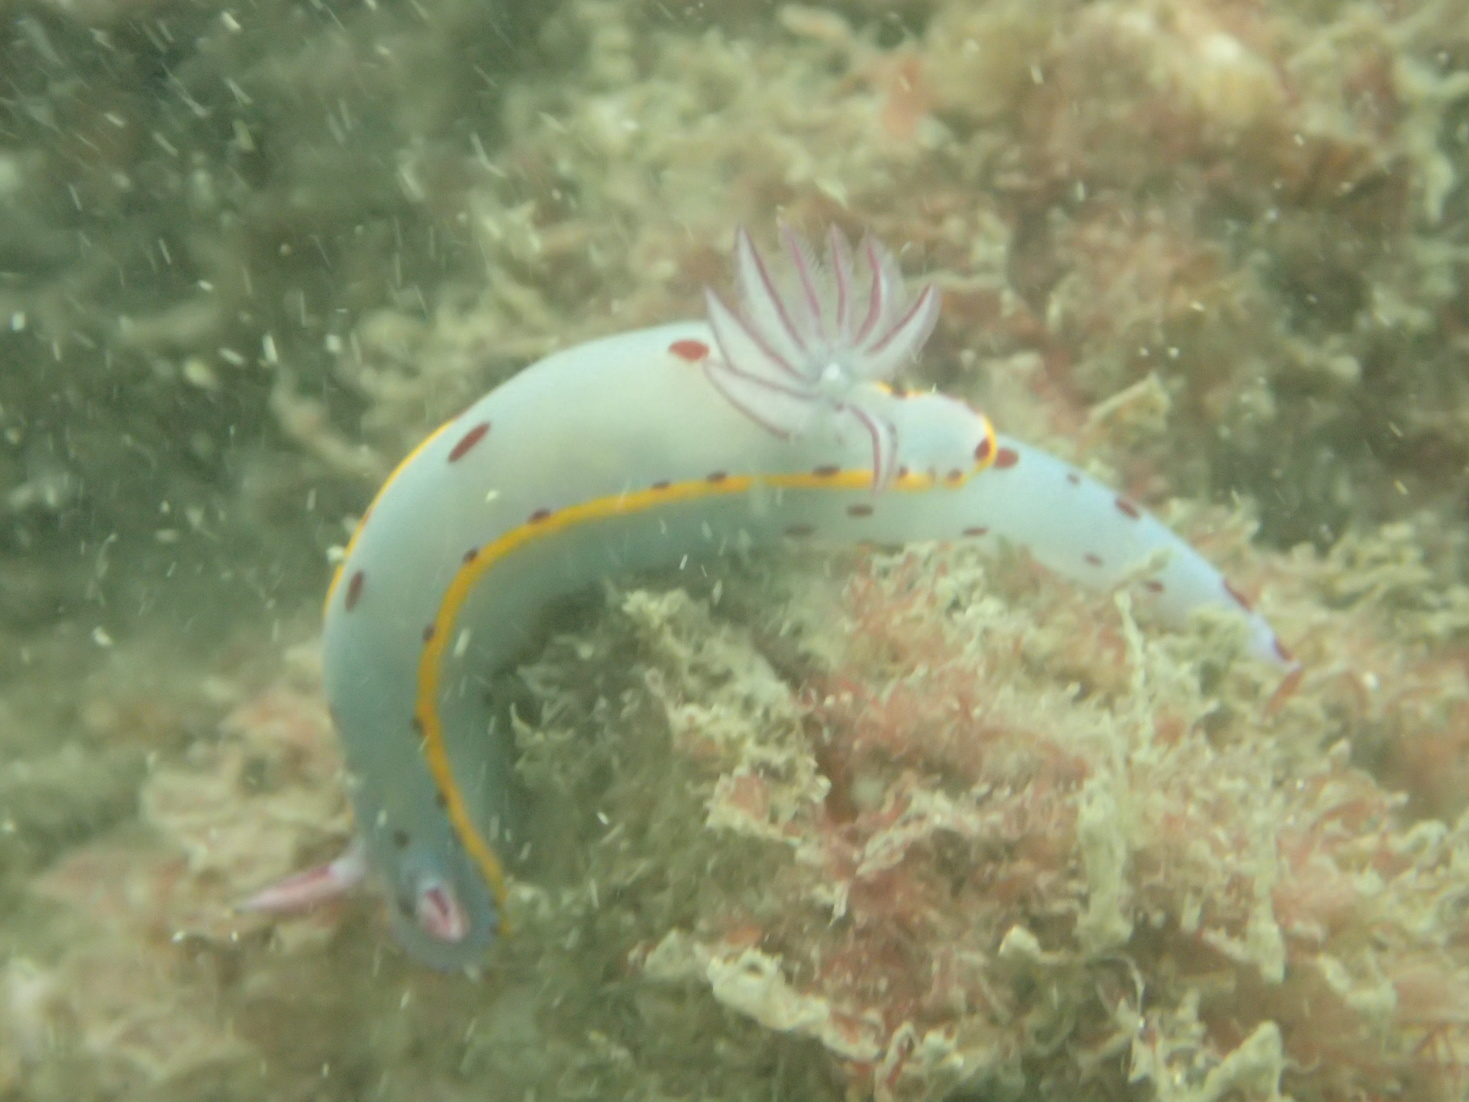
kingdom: Animalia
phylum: Mollusca
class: Gastropoda
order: Nudibranchia
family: Chromodorididae
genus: Hypselodoris
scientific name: Hypselodoris bennetti
